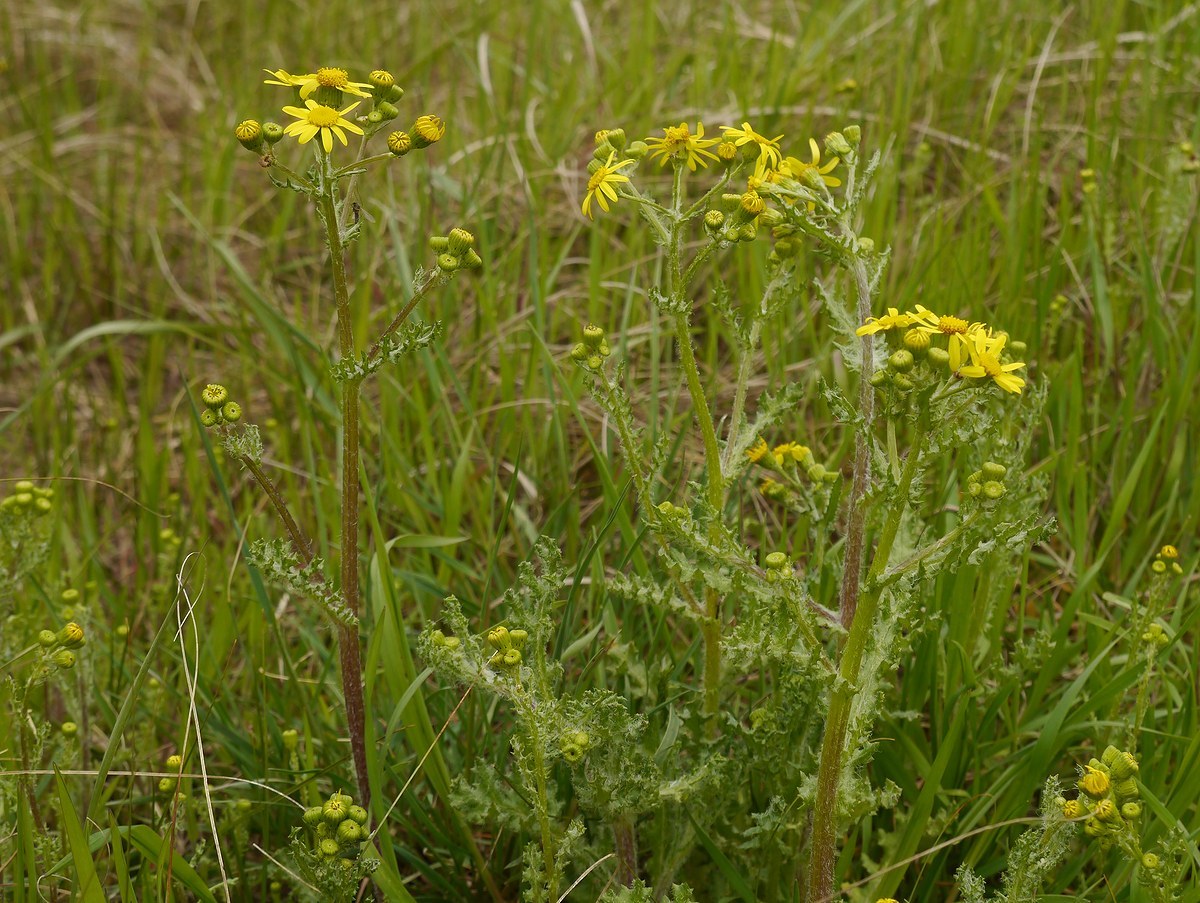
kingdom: Plantae
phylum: Tracheophyta
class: Magnoliopsida
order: Asterales
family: Asteraceae
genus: Senecio
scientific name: Senecio vernalis
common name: Eastern groundsel
